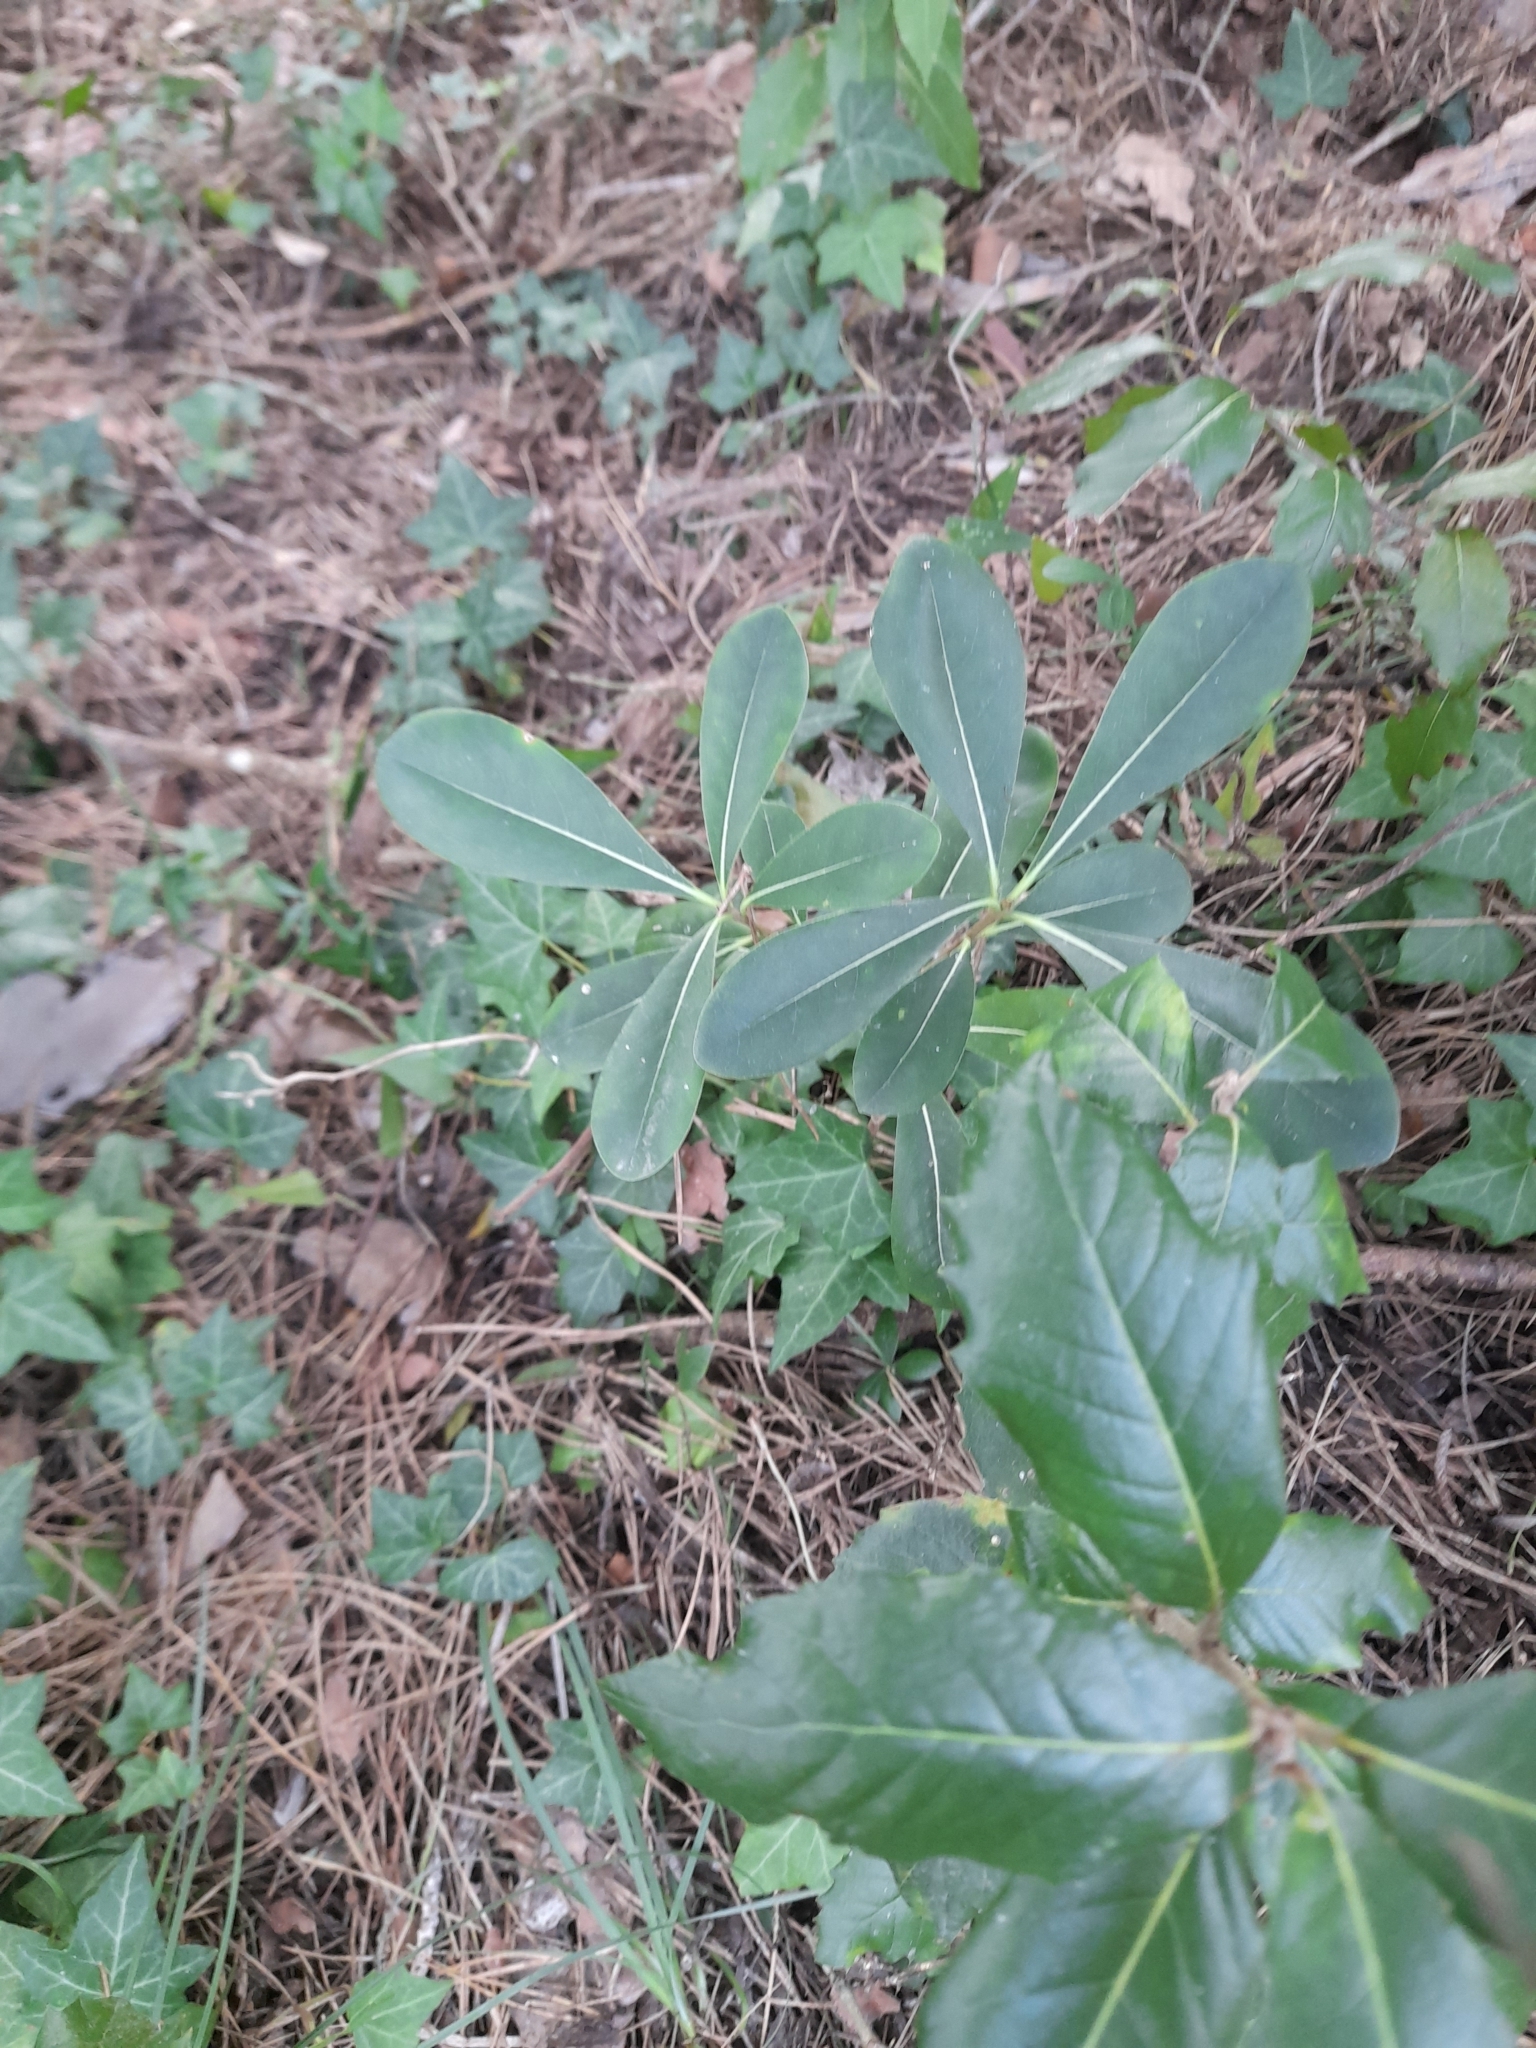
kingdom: Plantae
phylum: Tracheophyta
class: Magnoliopsida
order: Apiales
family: Pittosporaceae
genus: Pittosporum
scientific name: Pittosporum tobira
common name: Japanese cheesewood
